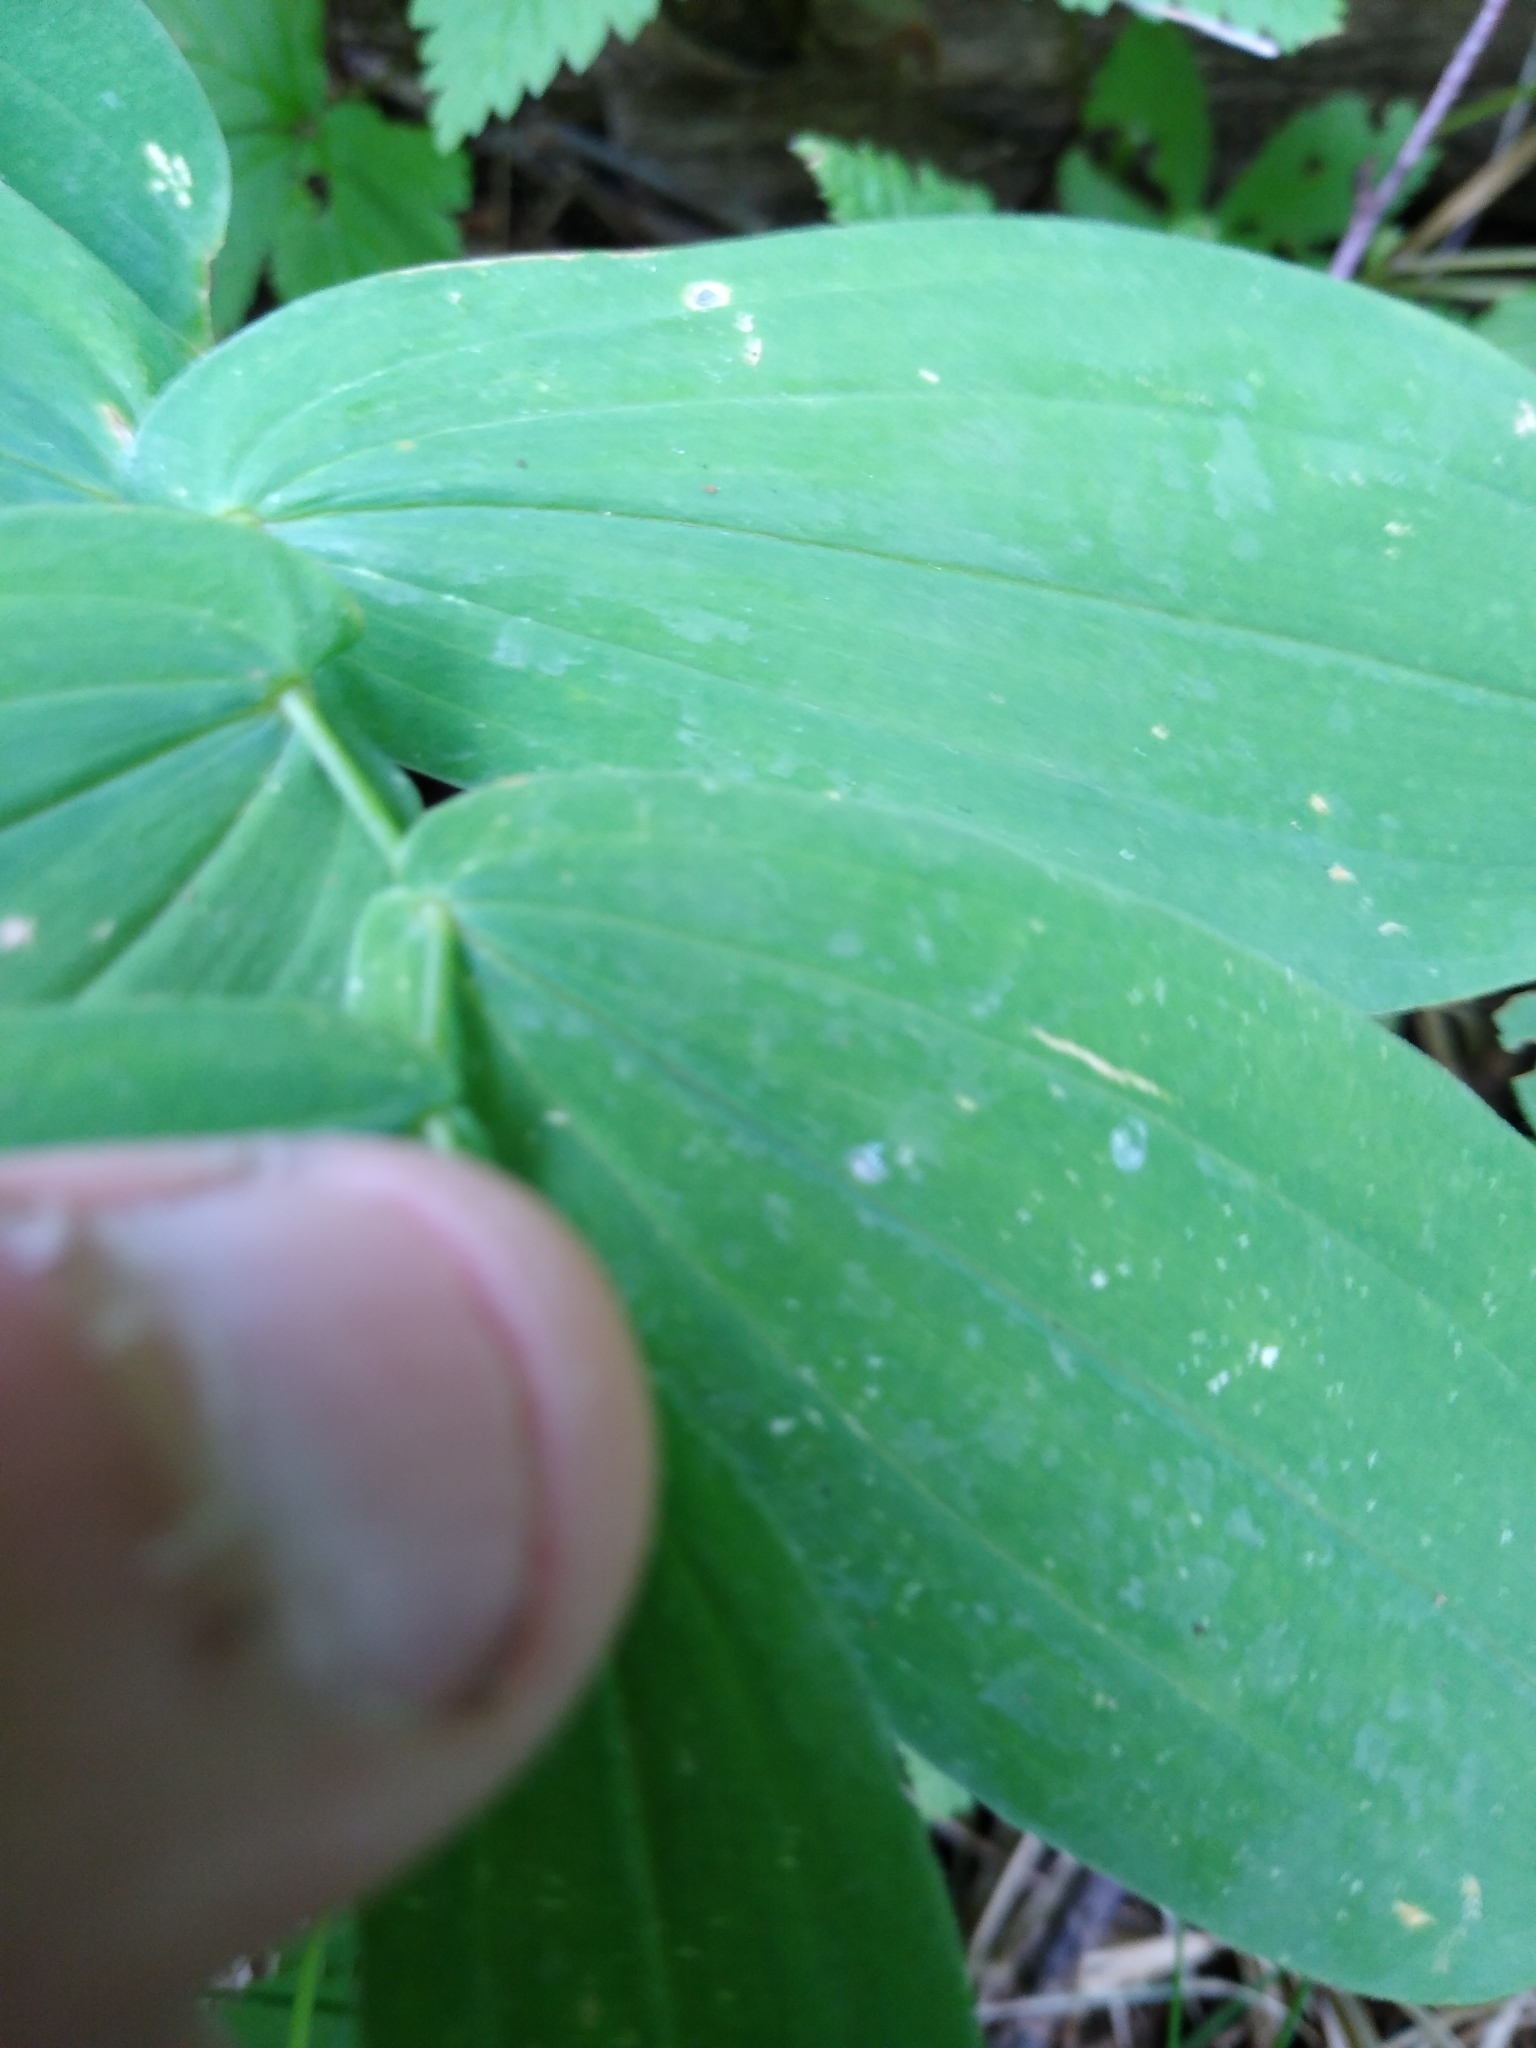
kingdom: Plantae
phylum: Tracheophyta
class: Liliopsida
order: Liliales
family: Colchicaceae
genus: Uvularia
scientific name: Uvularia grandiflora
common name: Bellwort
